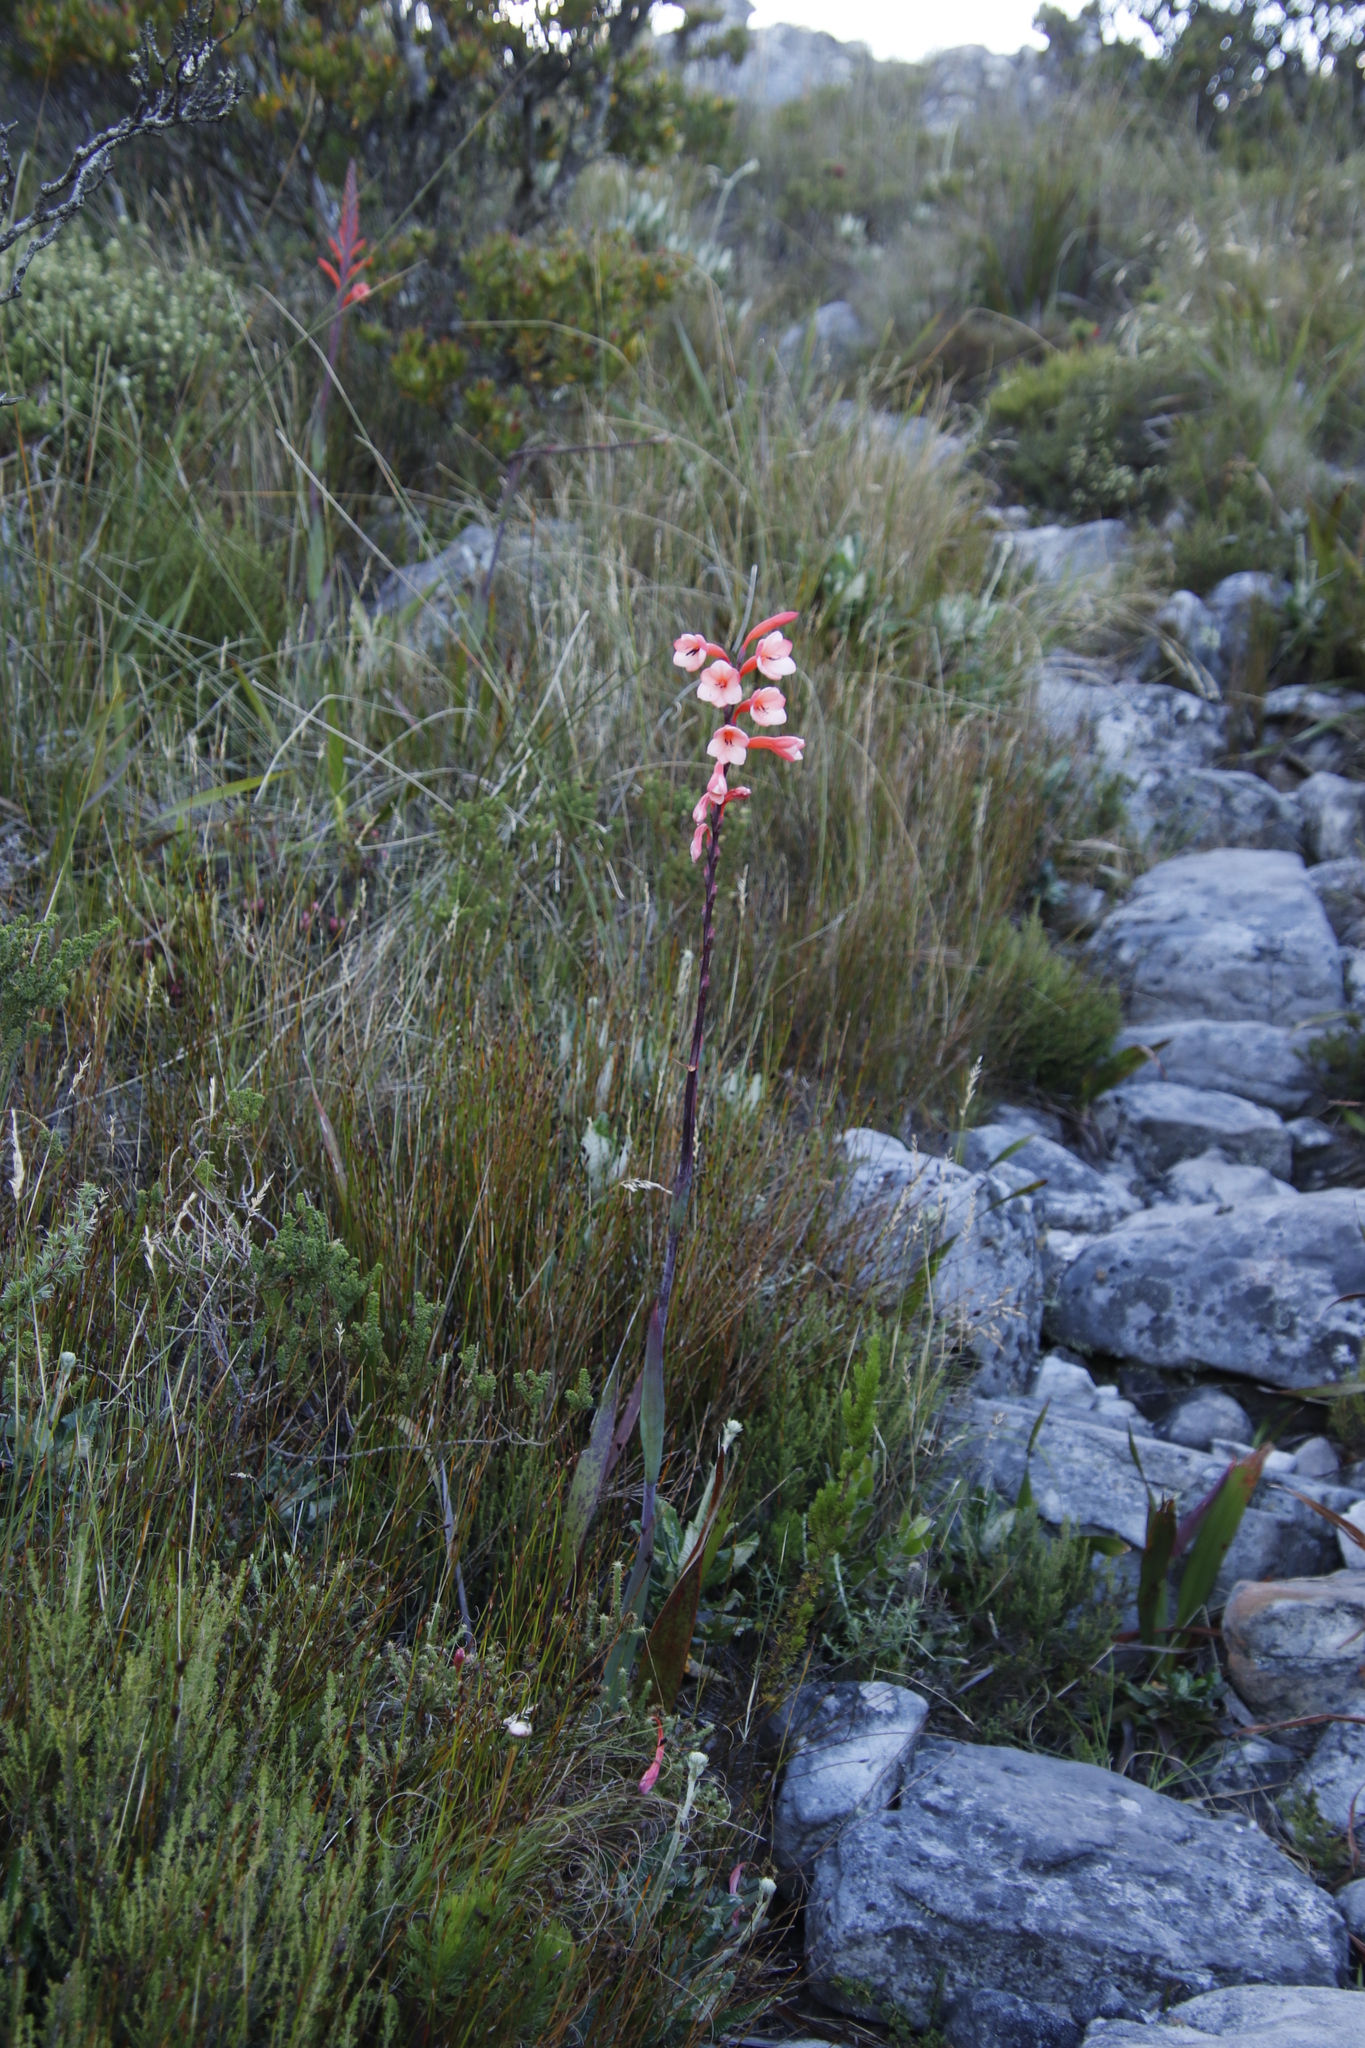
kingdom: Plantae
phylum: Tracheophyta
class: Liliopsida
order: Asparagales
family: Iridaceae
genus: Watsonia
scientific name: Watsonia tabularis
